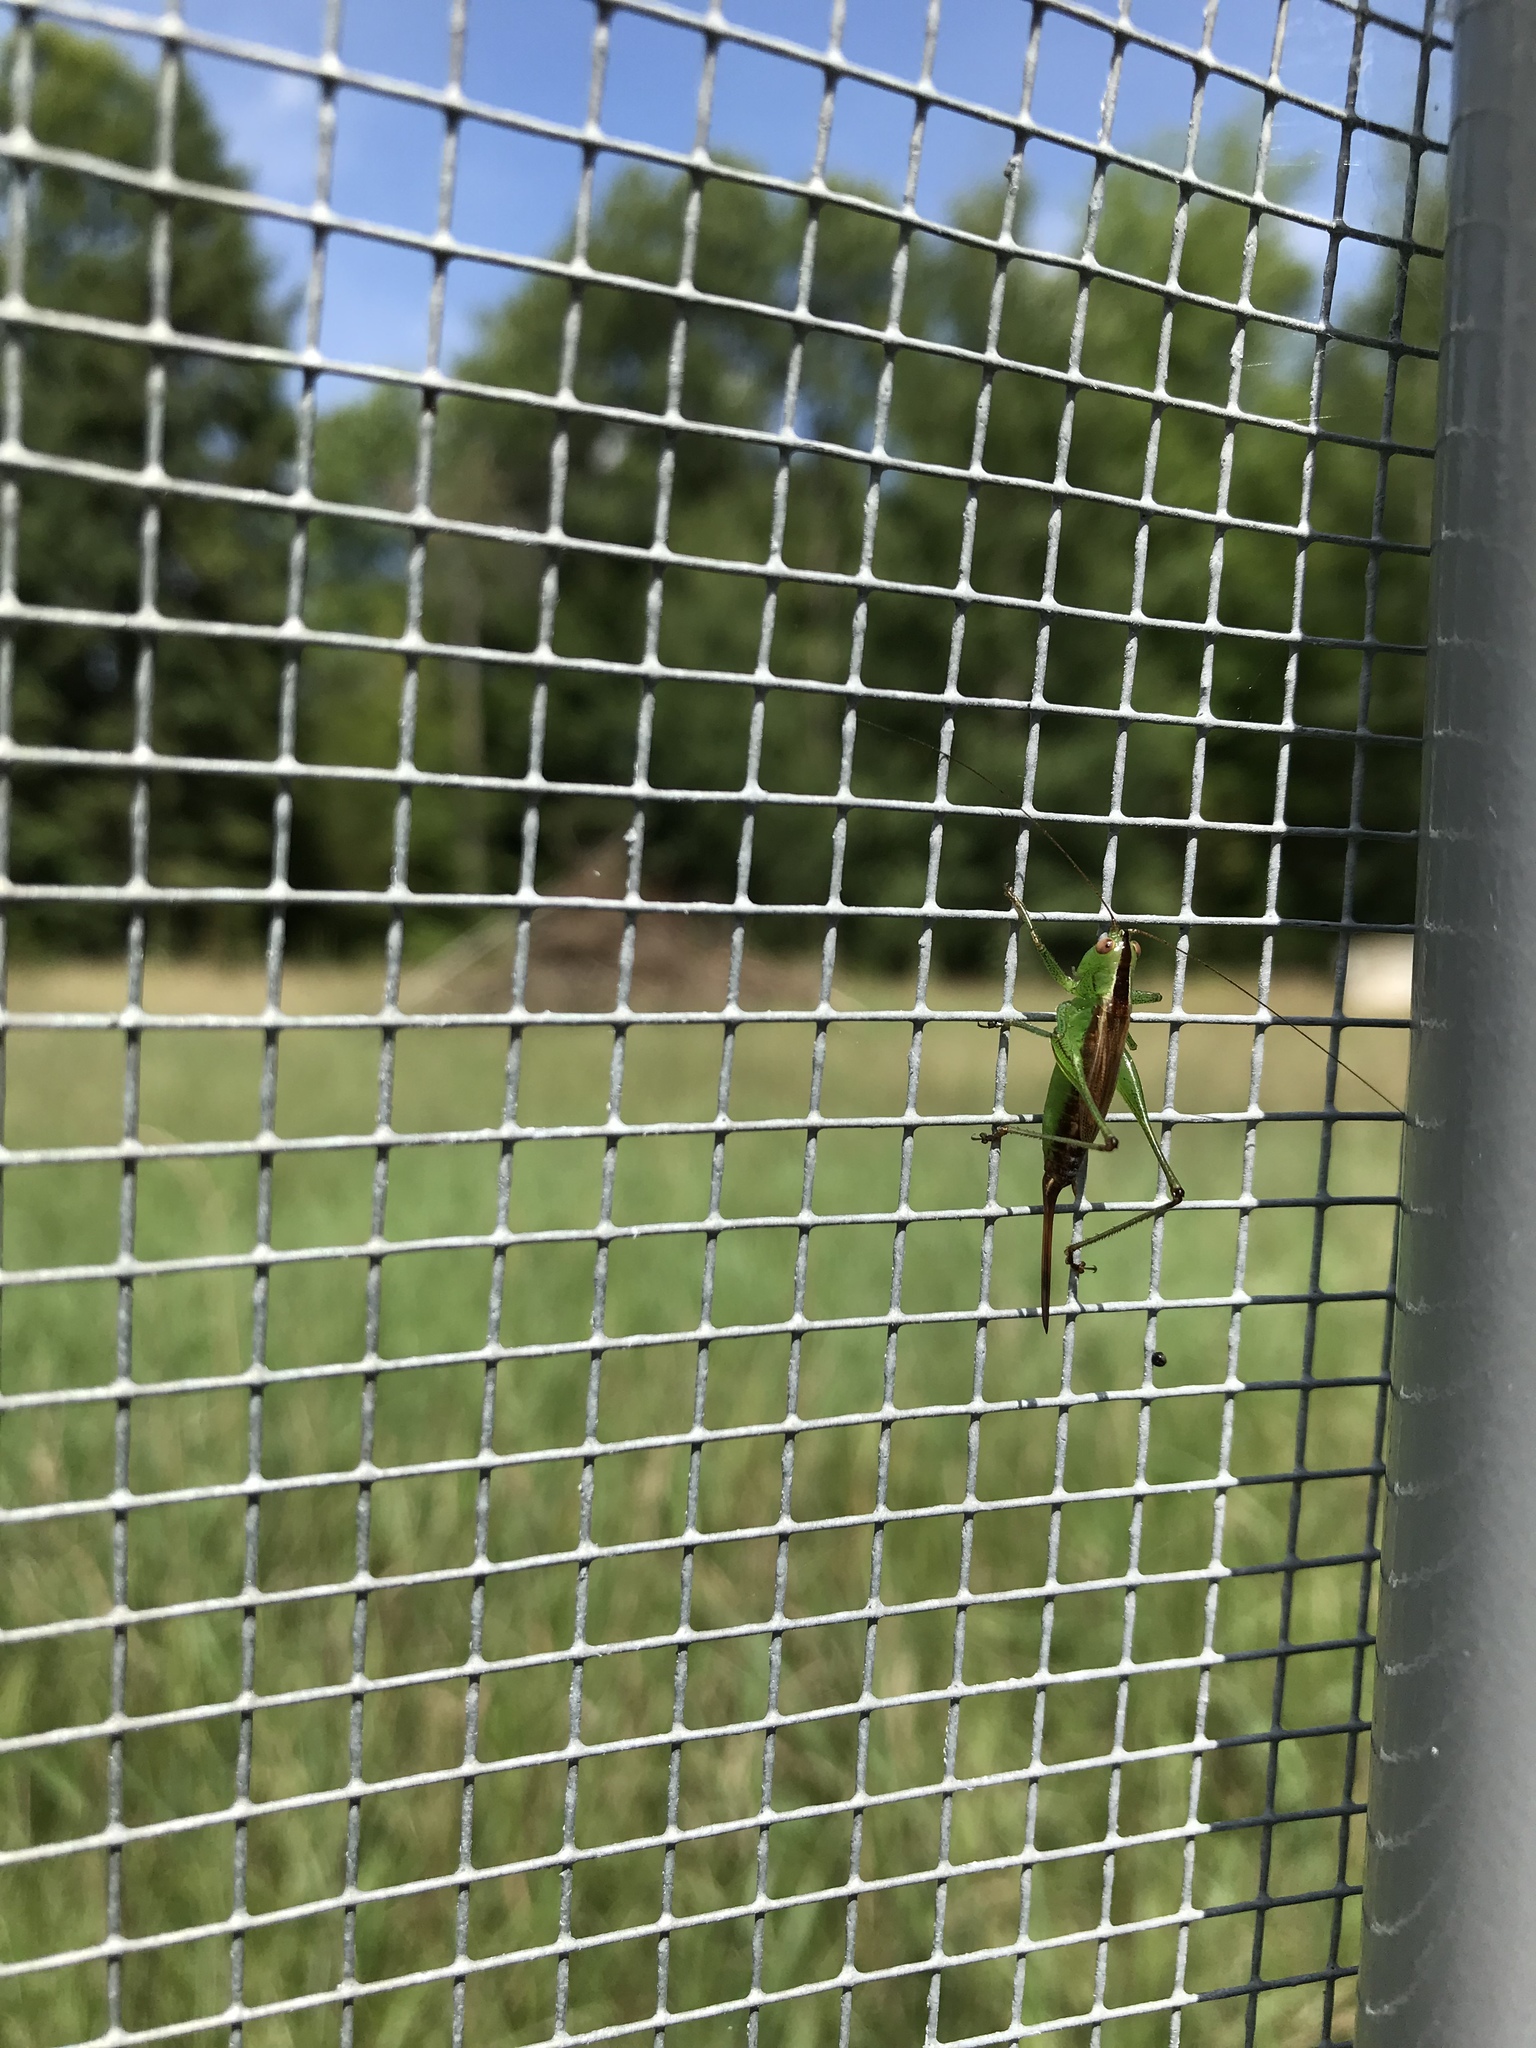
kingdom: Animalia
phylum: Arthropoda
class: Insecta
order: Orthoptera
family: Tettigoniidae
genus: Conocephalus
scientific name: Conocephalus brevipennis
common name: Short-winged meadow katydid
